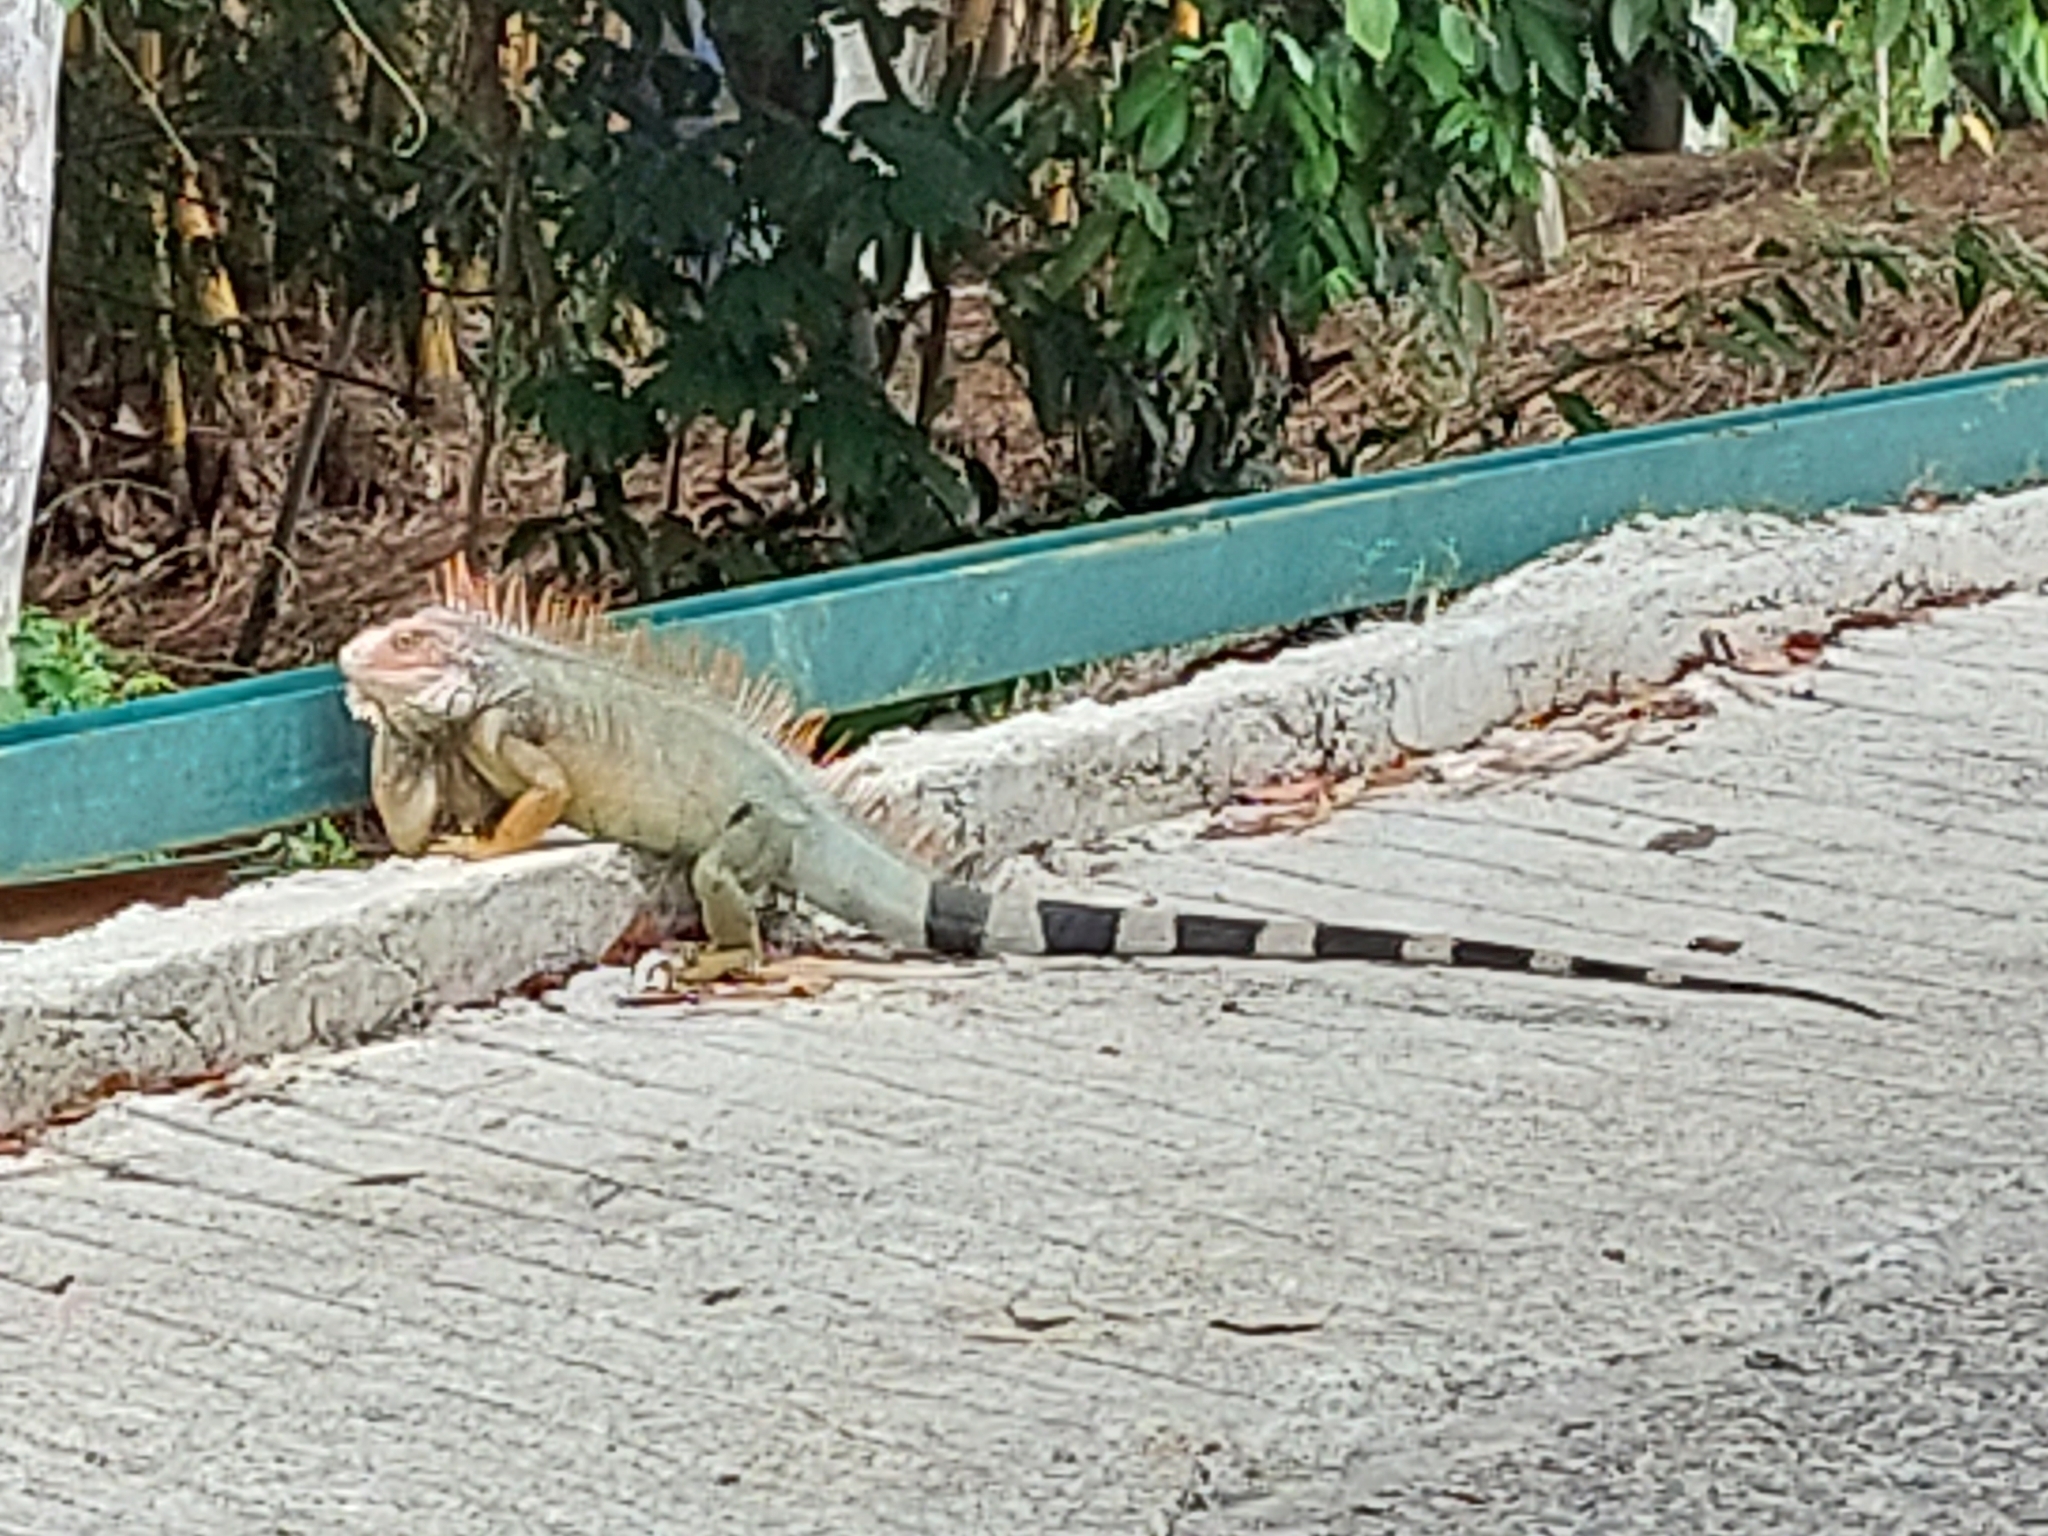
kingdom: Animalia
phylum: Chordata
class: Squamata
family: Iguanidae
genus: Iguana
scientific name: Iguana iguana
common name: Green iguana
